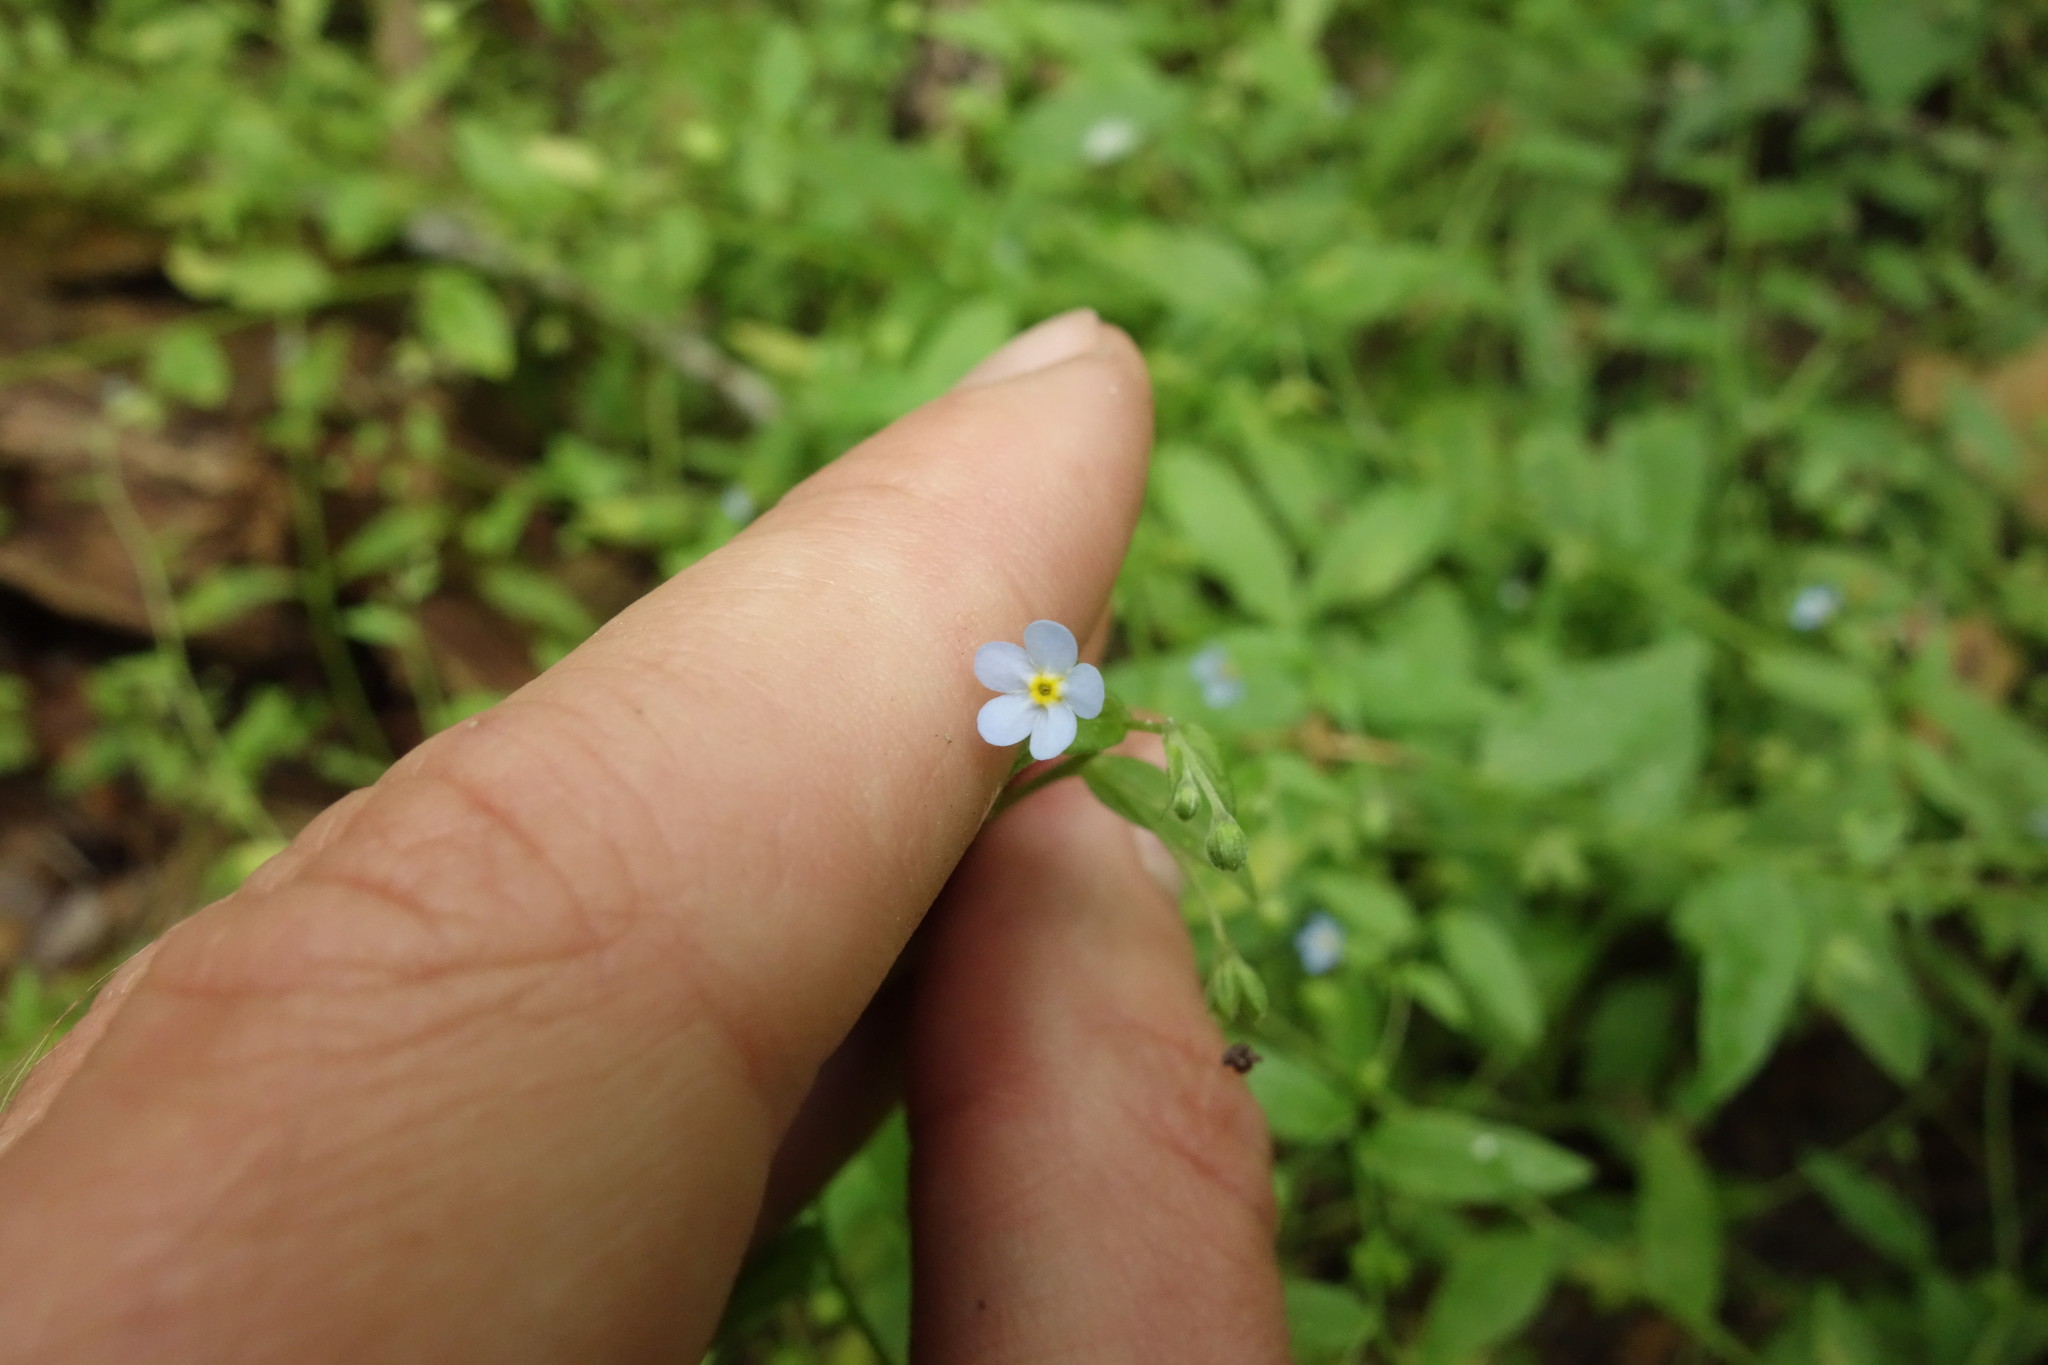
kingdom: Plantae
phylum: Tracheophyta
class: Magnoliopsida
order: Boraginales
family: Boraginaceae
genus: Memoremea
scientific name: Memoremea scorpioides
